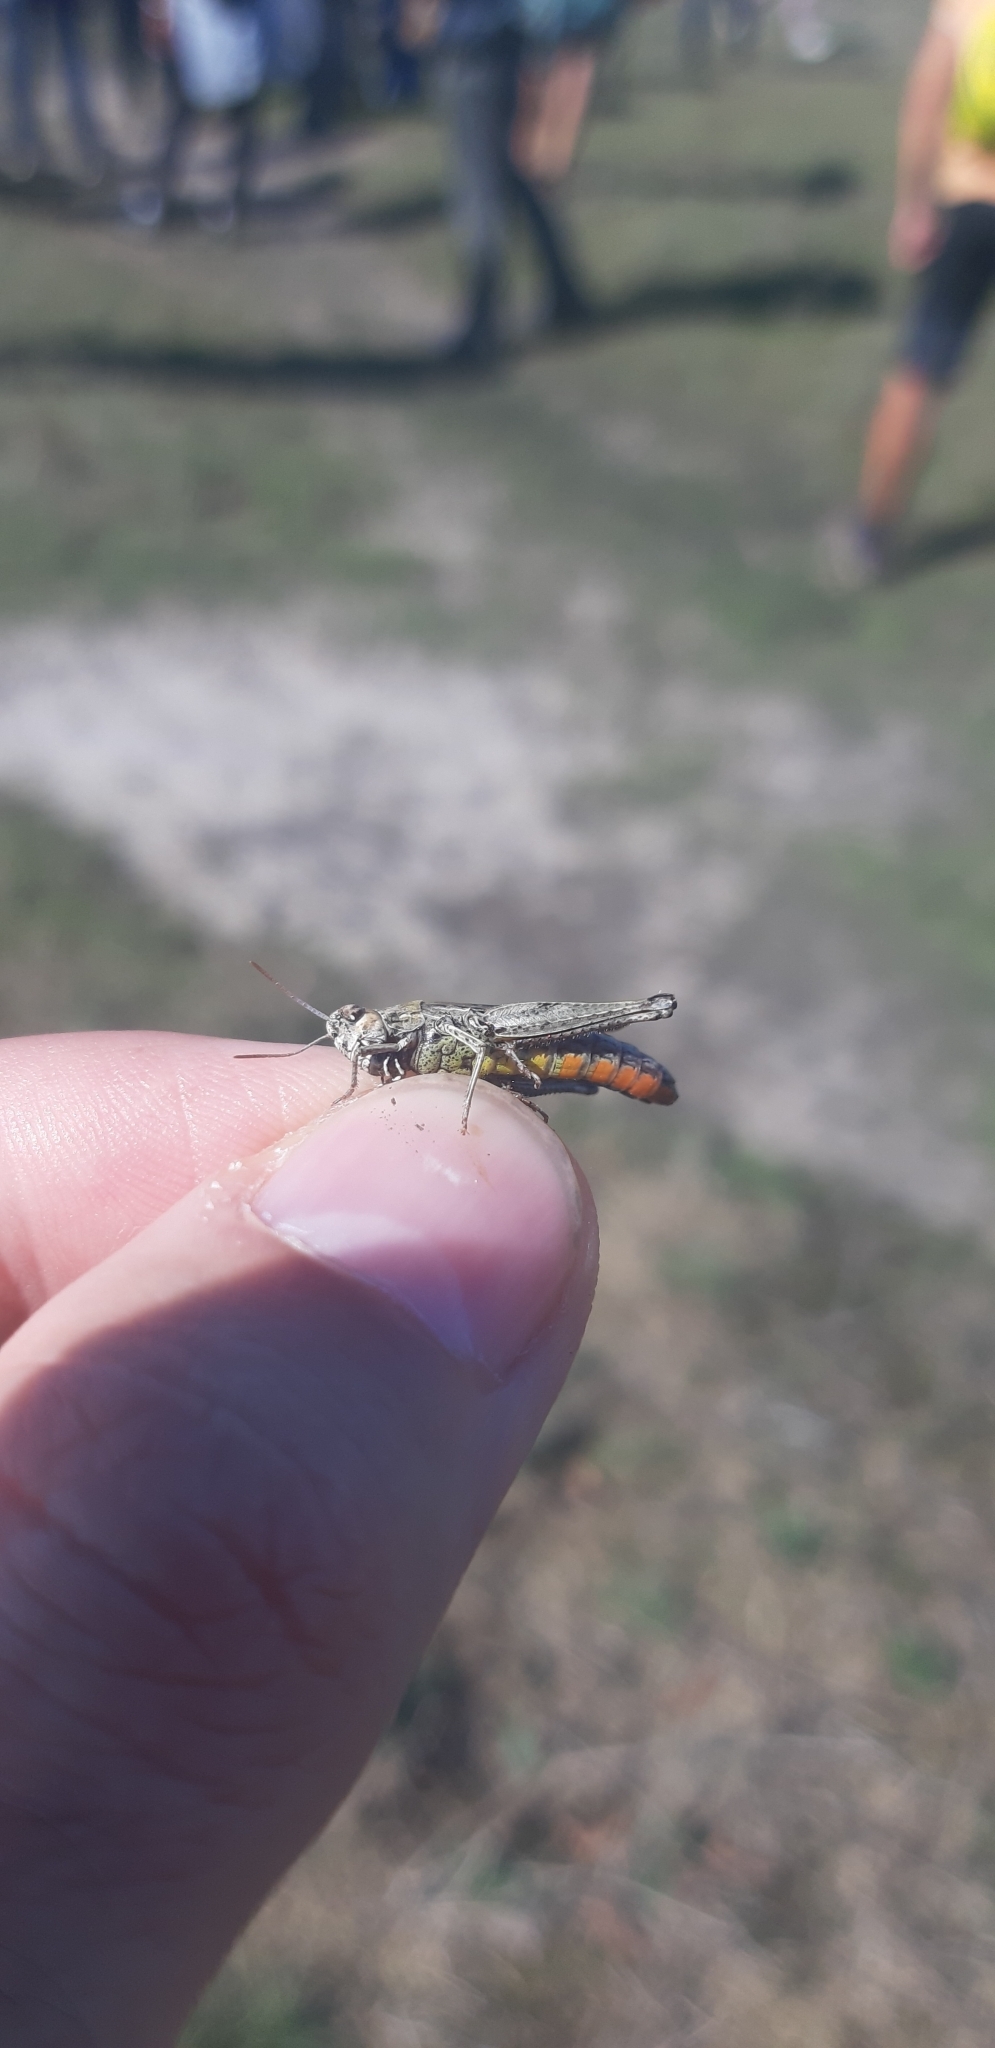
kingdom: Animalia
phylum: Arthropoda
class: Insecta
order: Orthoptera
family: Acrididae
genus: Omocestus
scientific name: Omocestus rufipes
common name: Woodland grasshopper
